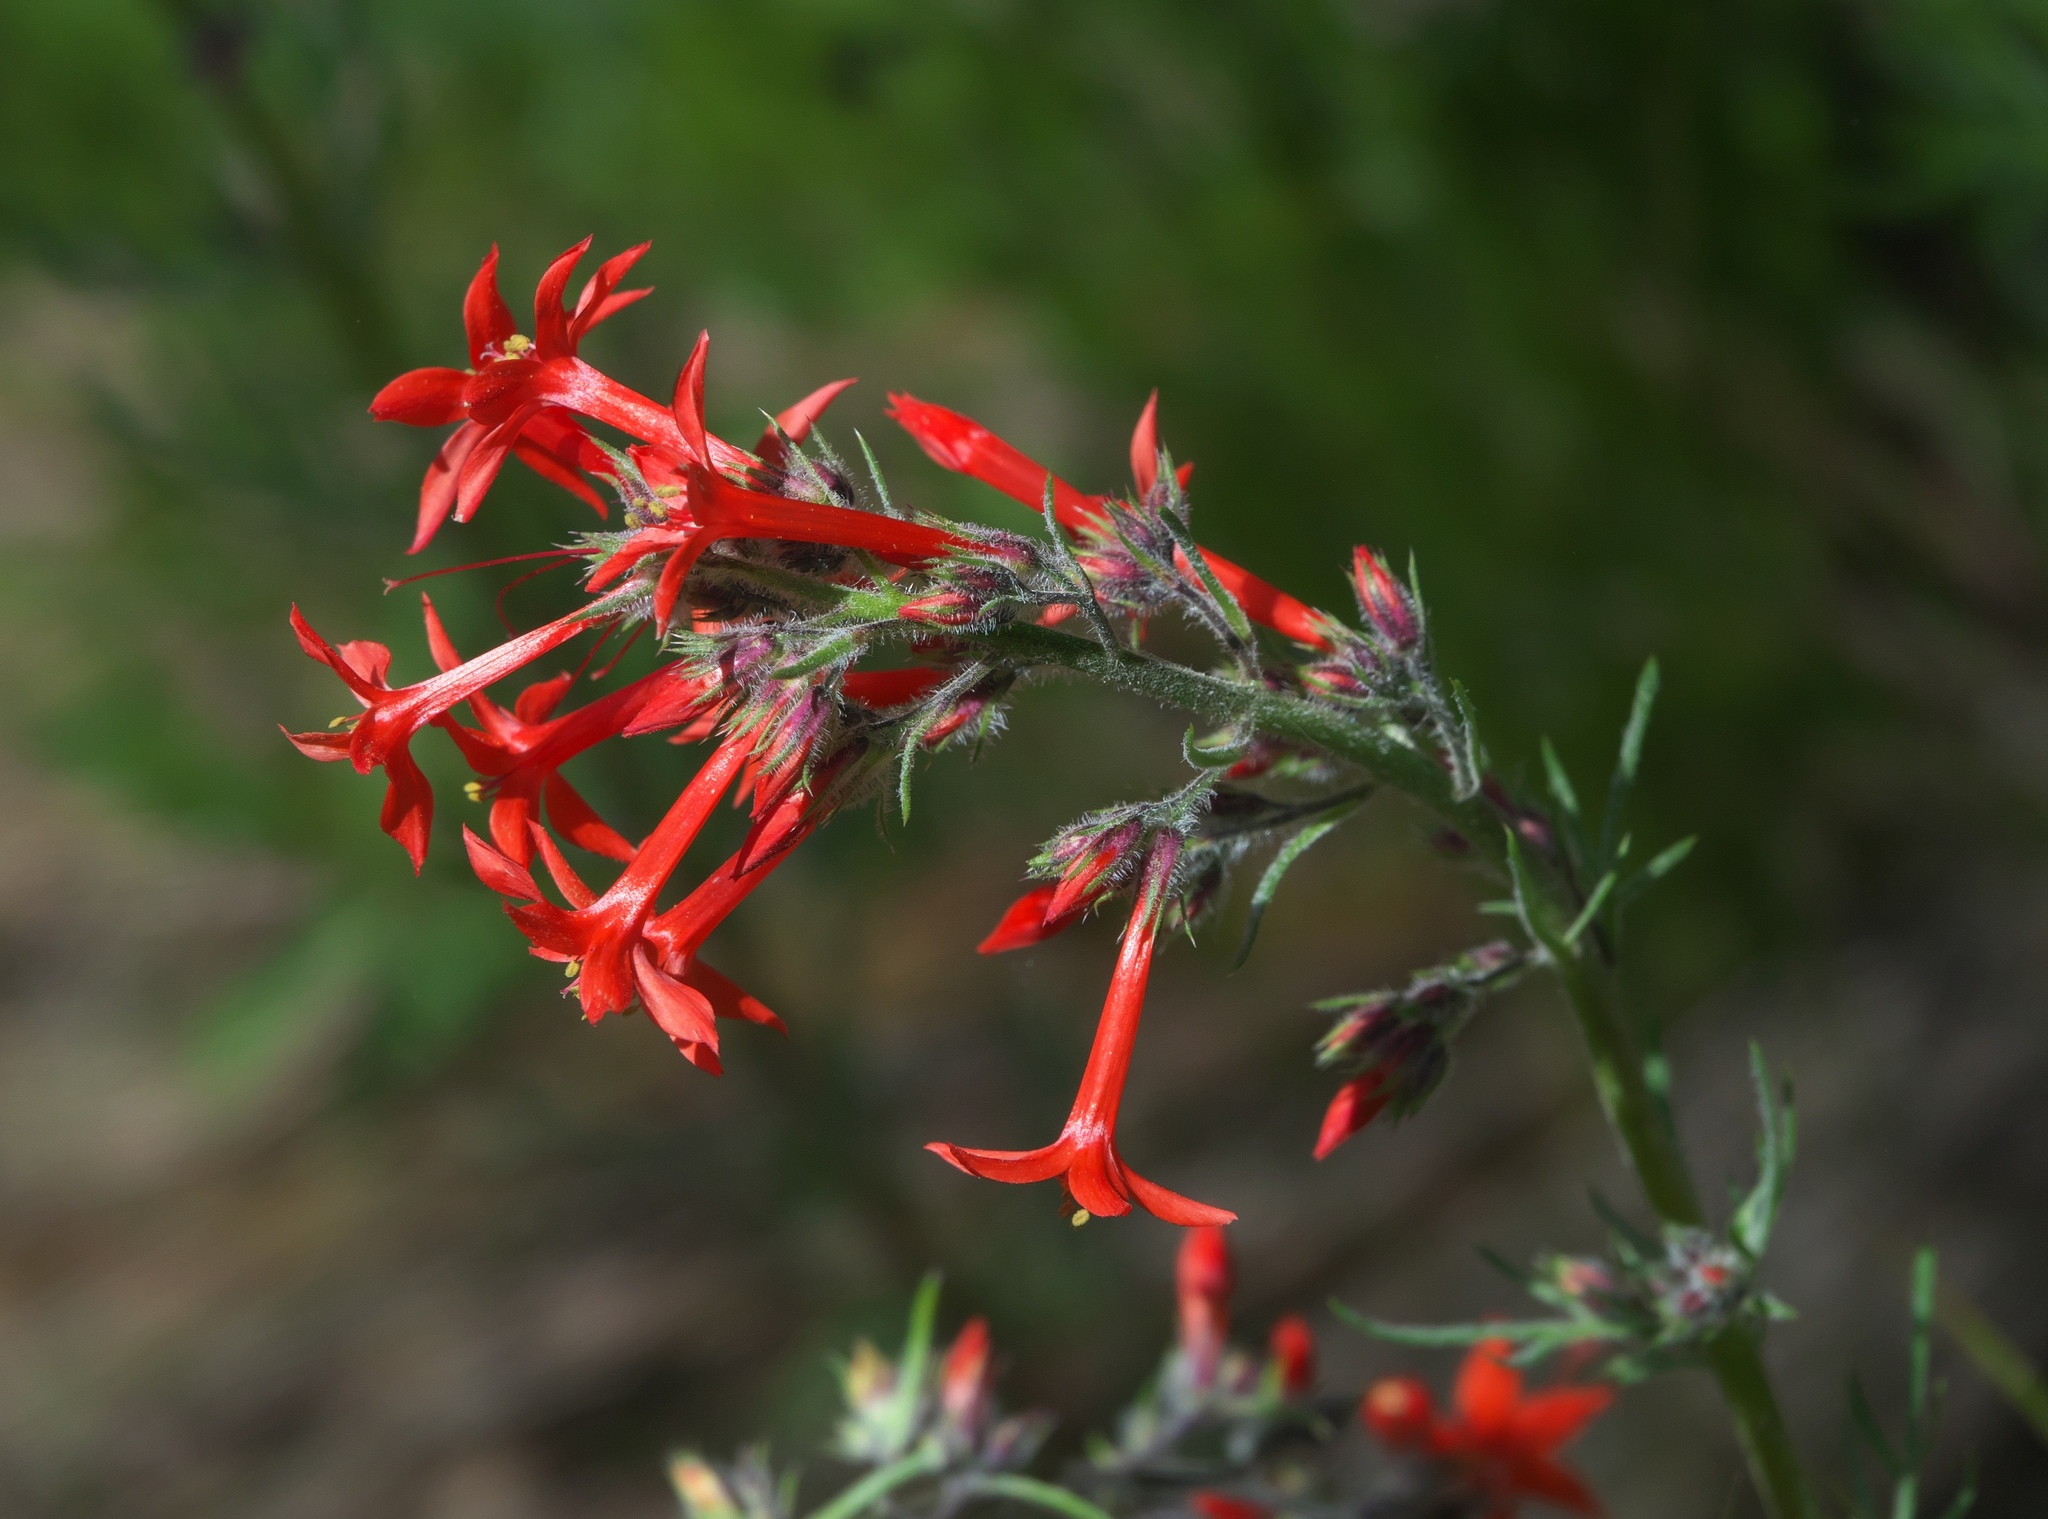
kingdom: Plantae
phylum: Tracheophyta
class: Magnoliopsida
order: Ericales
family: Polemoniaceae
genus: Ipomopsis
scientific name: Ipomopsis aggregata
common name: Scarlet gilia
